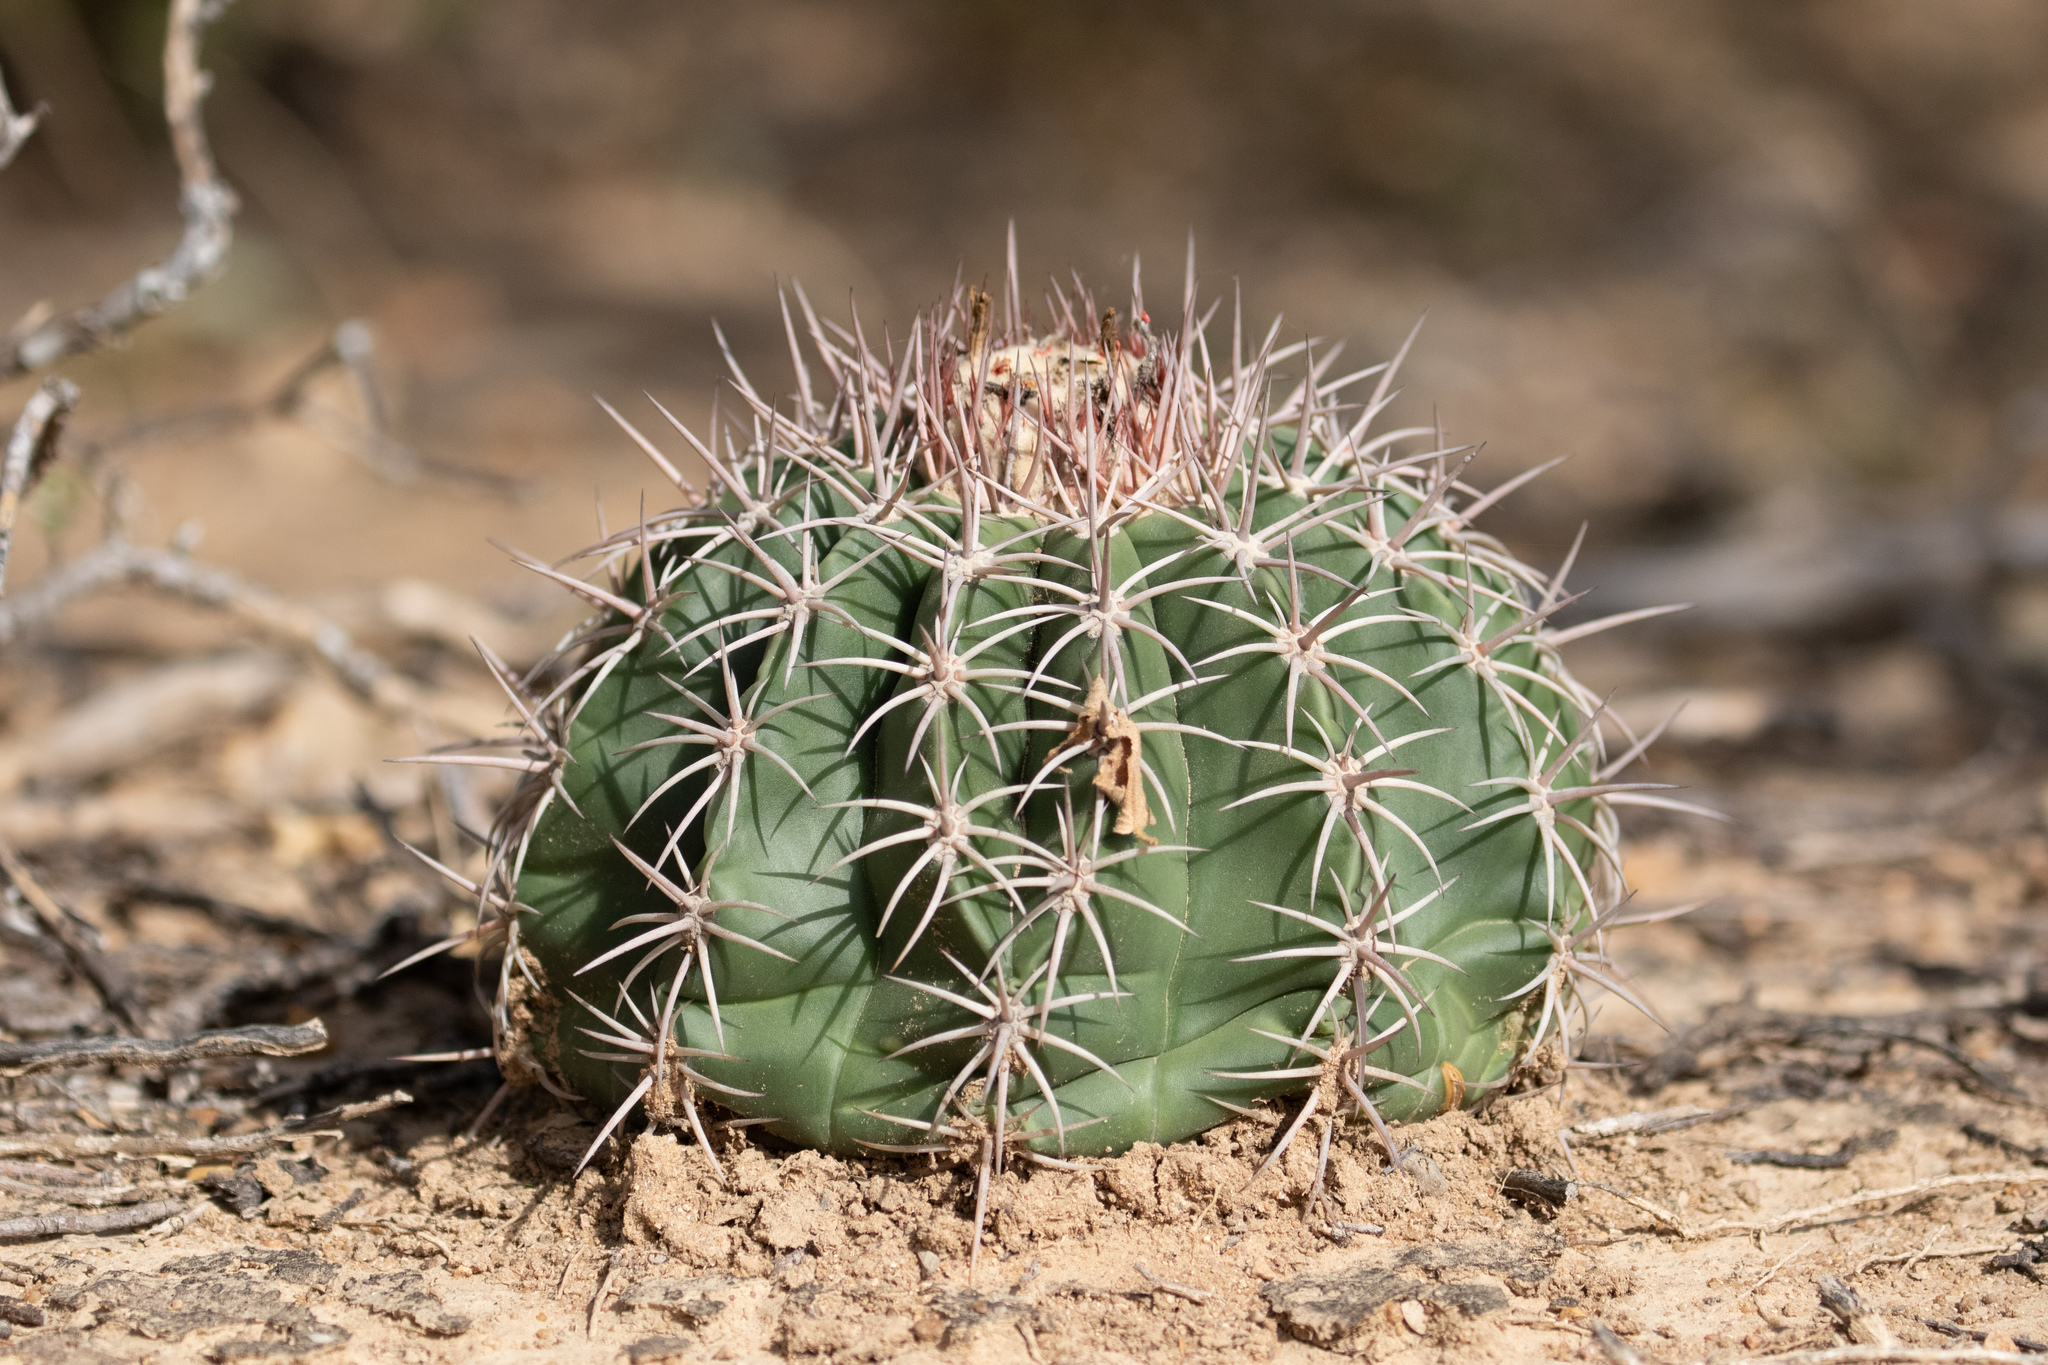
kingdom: Plantae
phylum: Tracheophyta
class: Magnoliopsida
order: Caryophyllales
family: Cactaceae
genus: Melocactus
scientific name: Melocactus curvispinus
